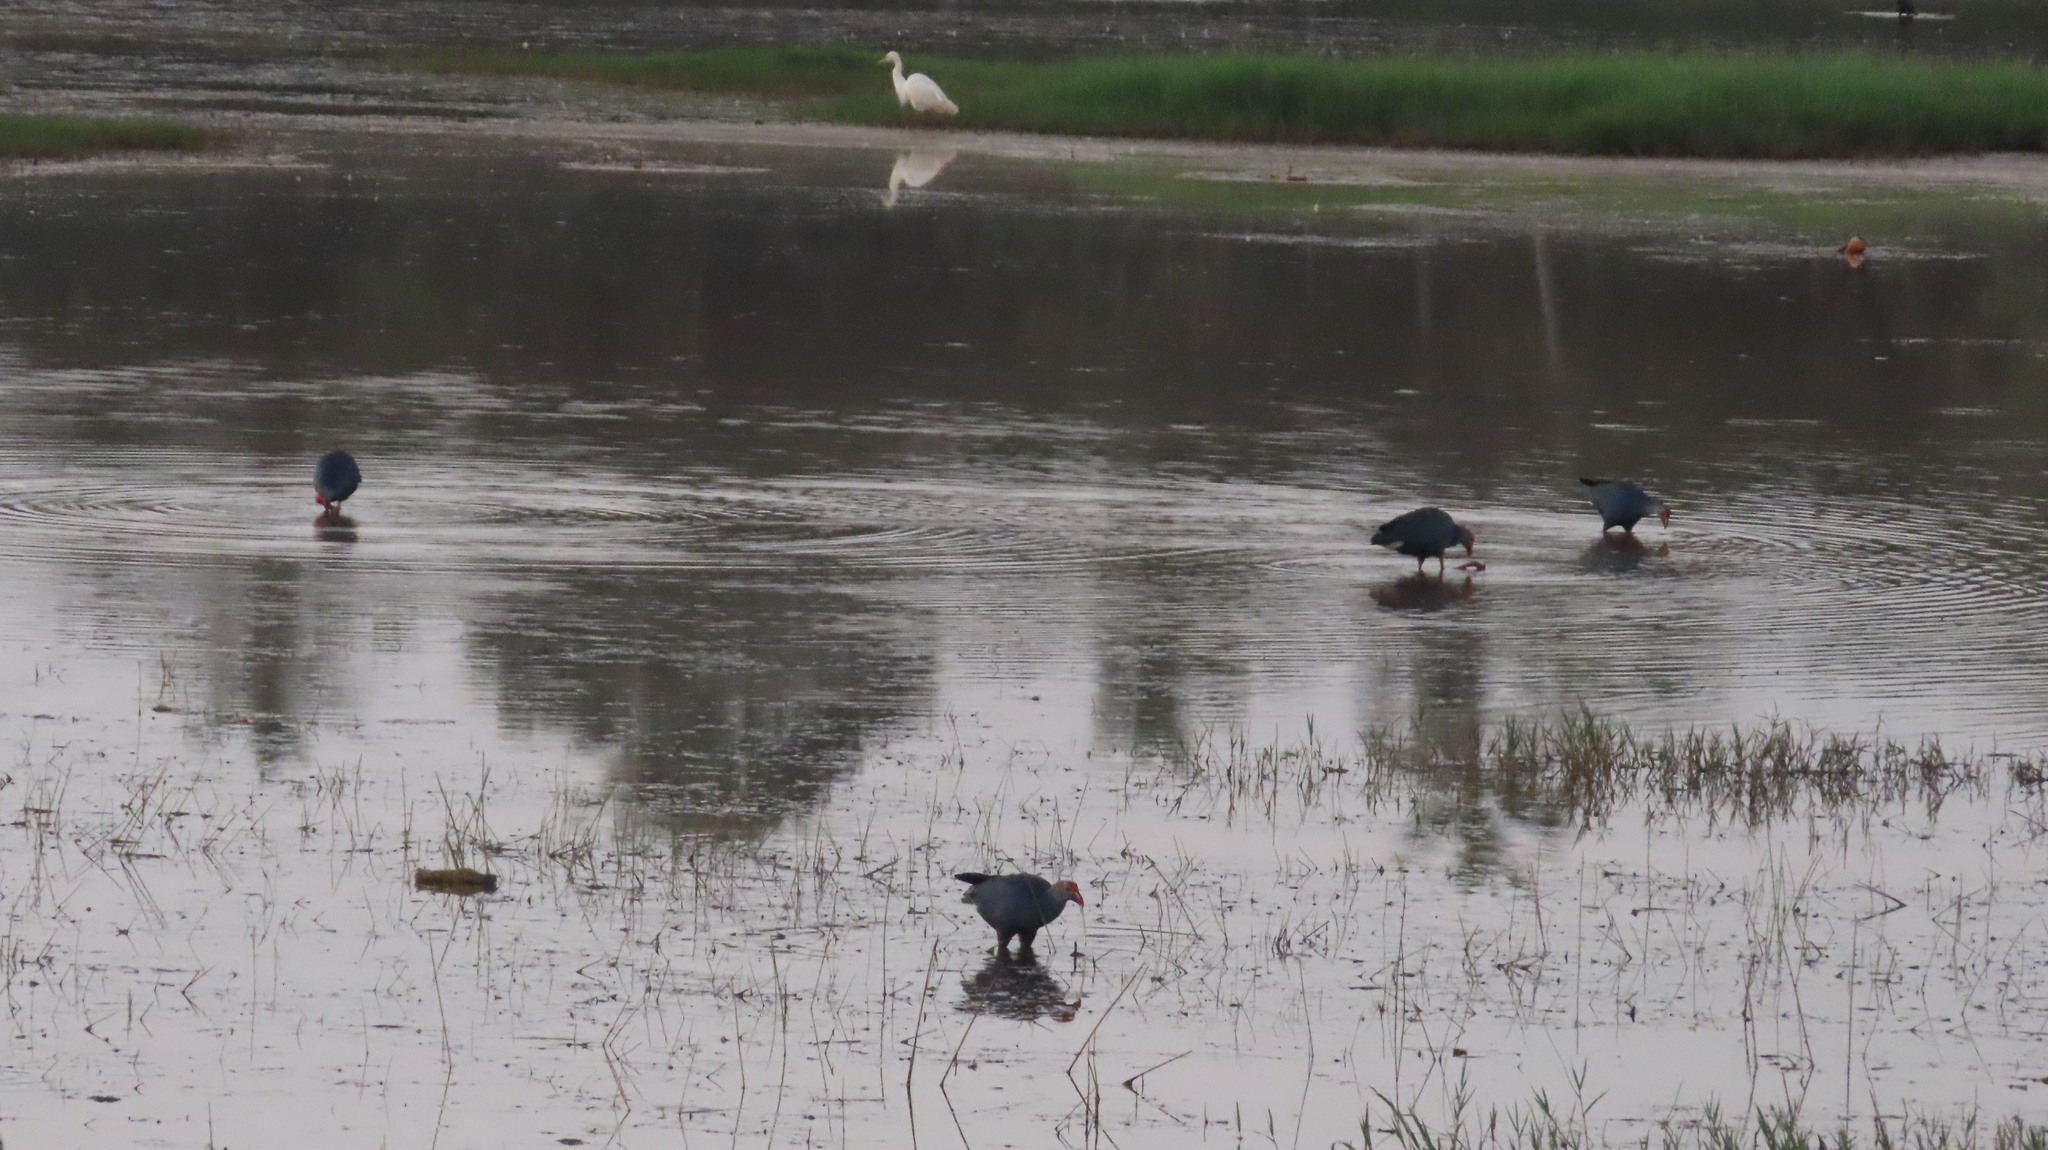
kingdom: Animalia
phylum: Chordata
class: Aves
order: Gruiformes
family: Rallidae
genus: Porphyrio
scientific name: Porphyrio porphyrio
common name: Purple swamphen
